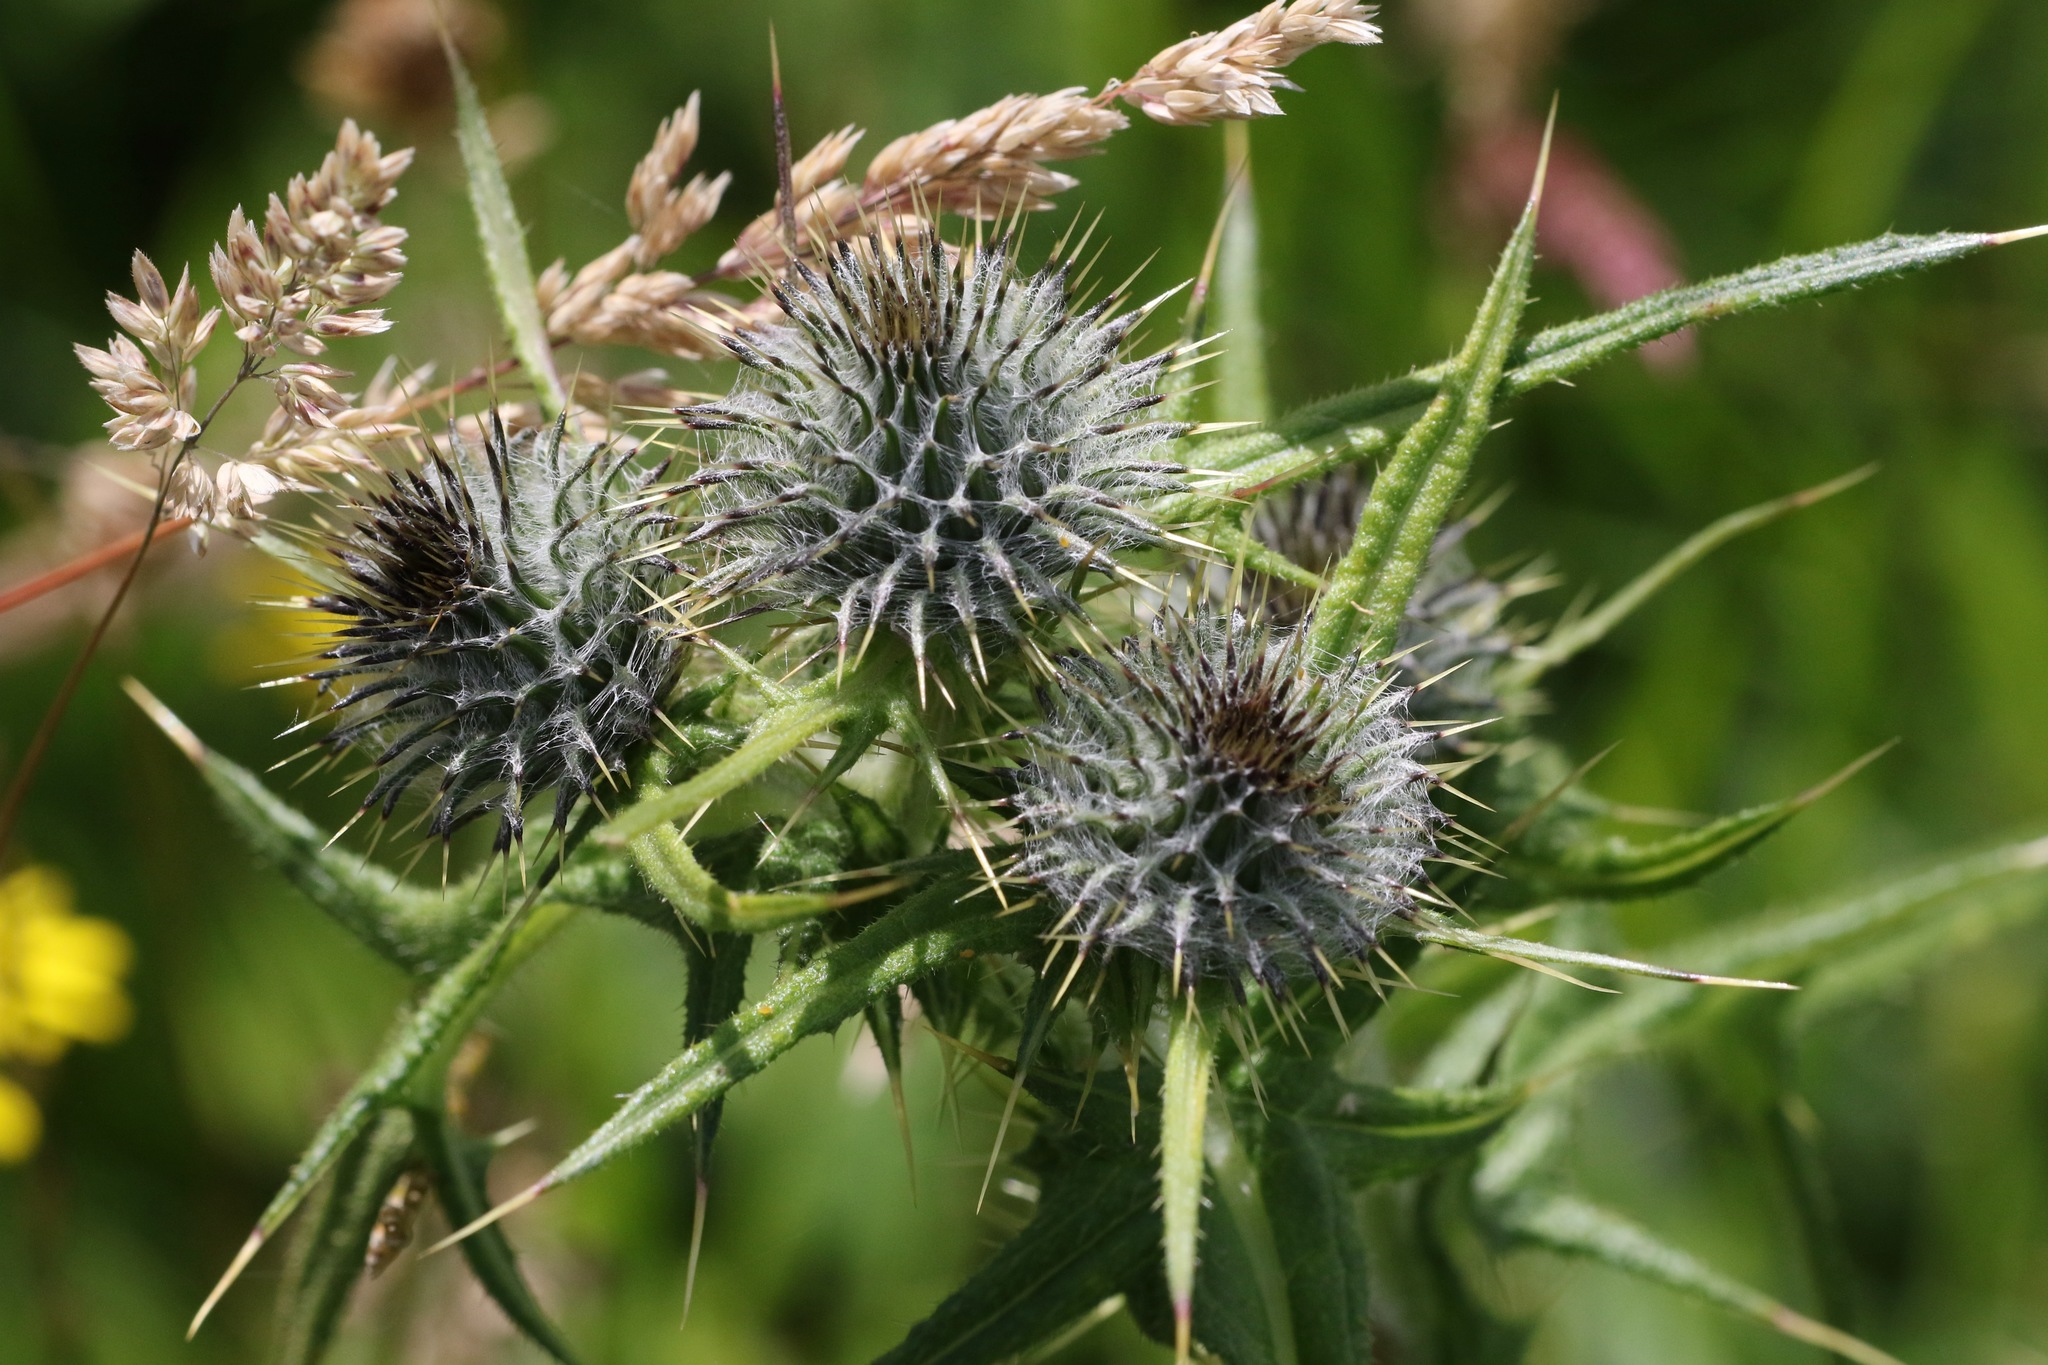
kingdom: Plantae
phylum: Tracheophyta
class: Magnoliopsida
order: Asterales
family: Asteraceae
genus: Cirsium
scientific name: Cirsium vulgare
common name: Bull thistle
